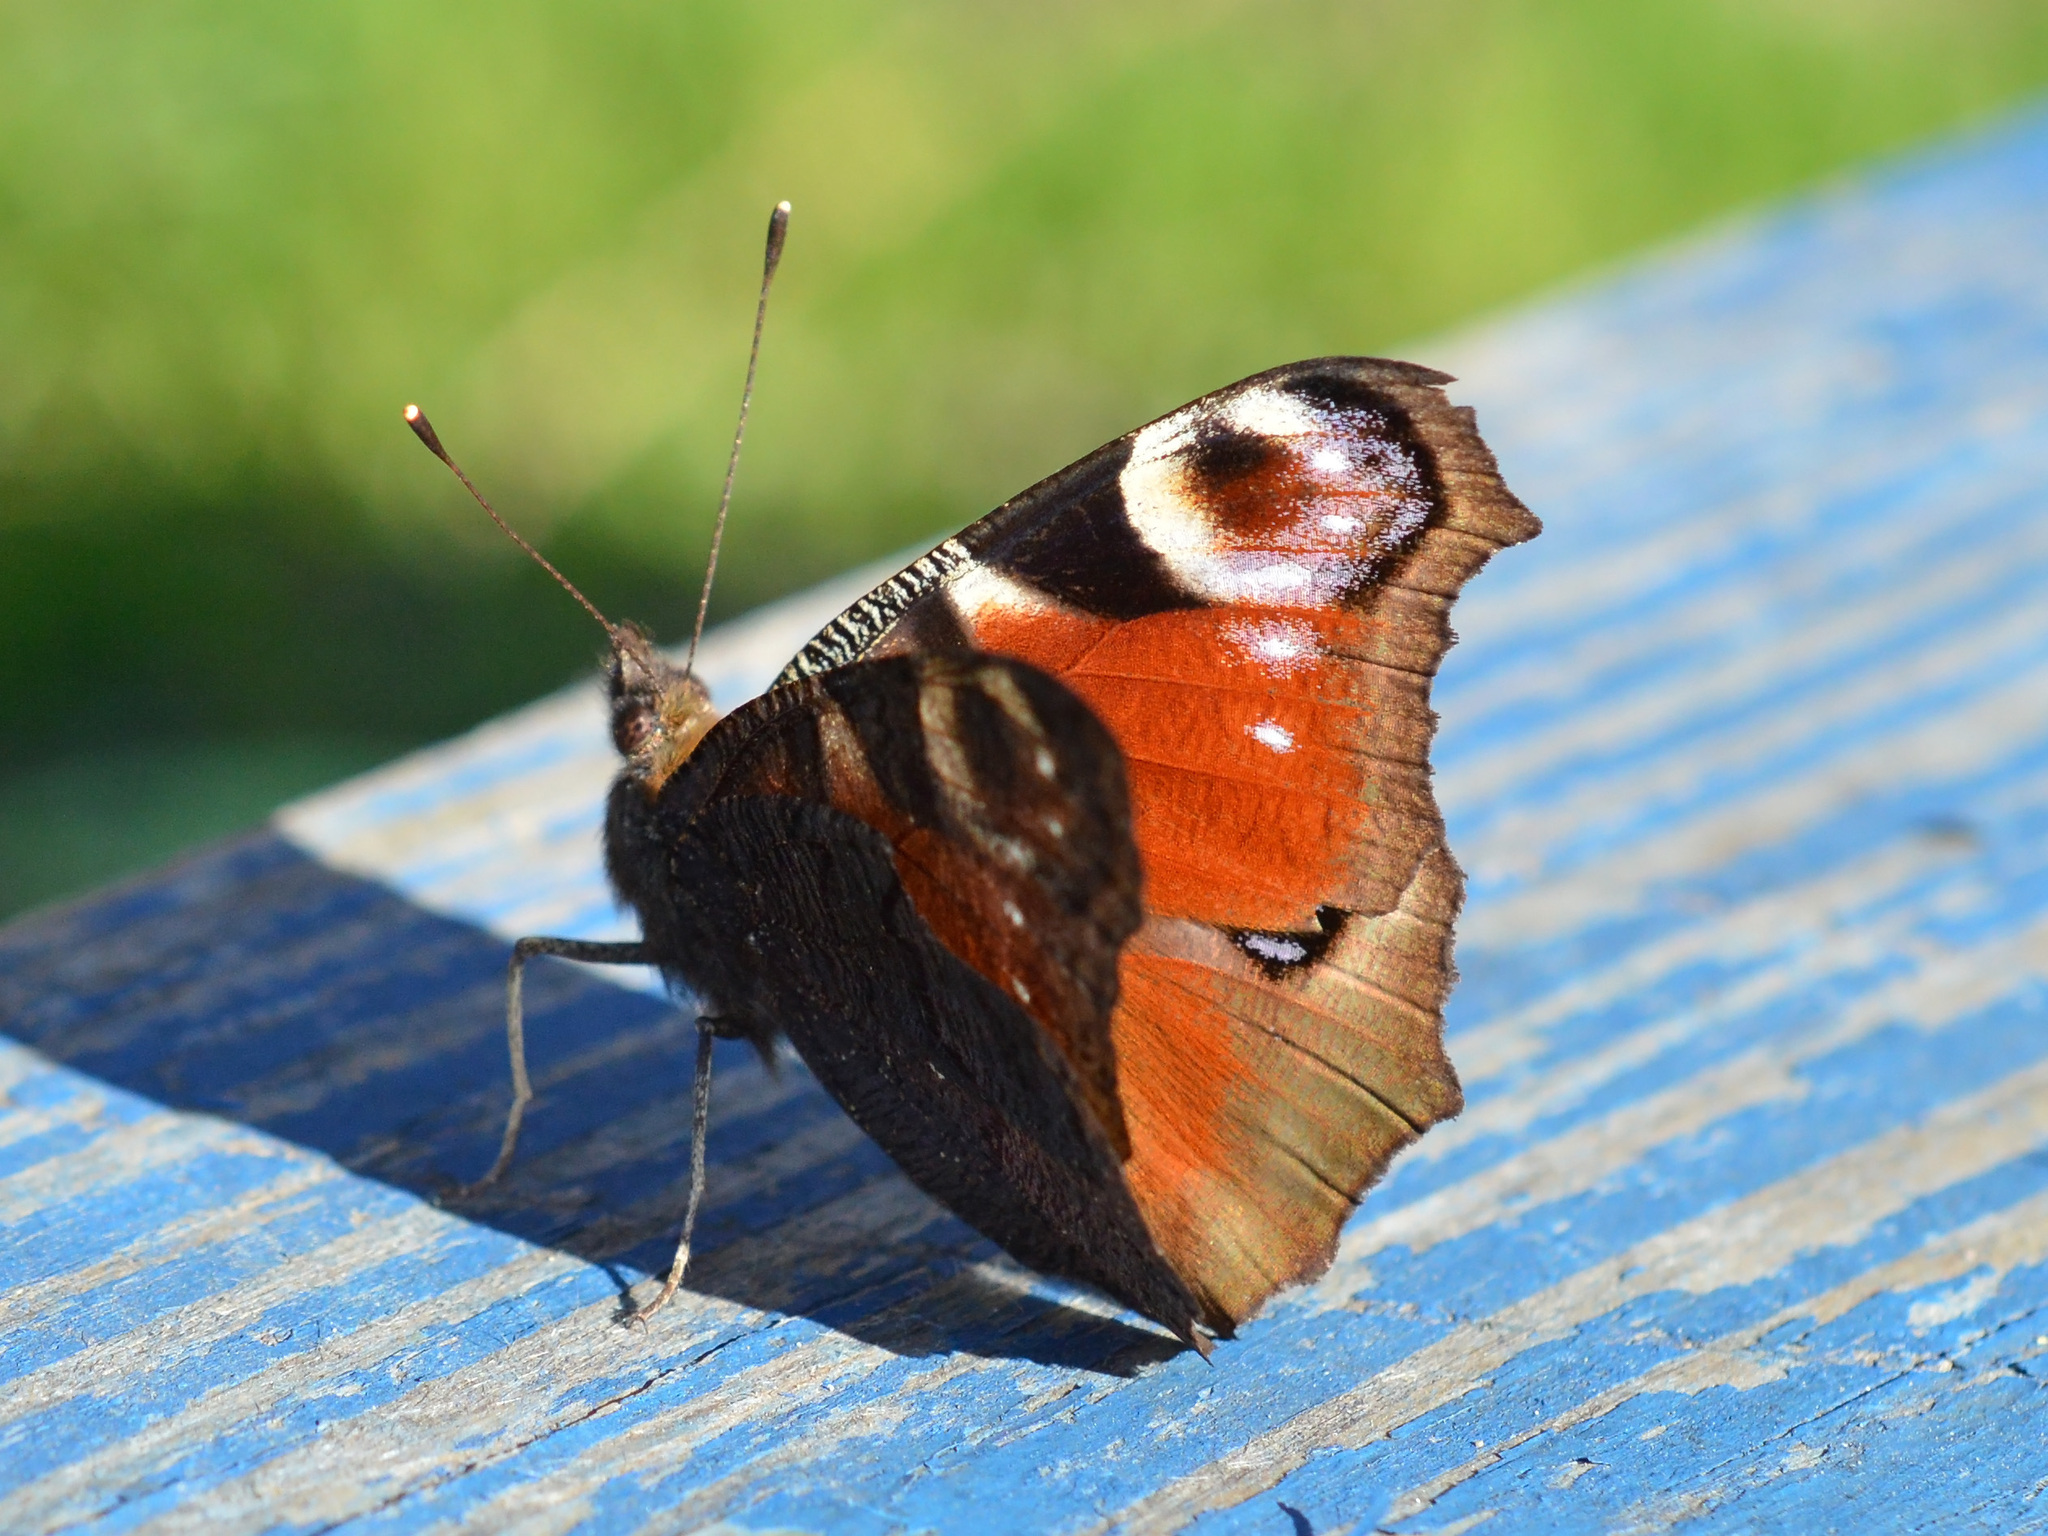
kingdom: Animalia
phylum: Arthropoda
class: Insecta
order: Lepidoptera
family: Nymphalidae
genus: Aglais
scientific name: Aglais io
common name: Peacock
